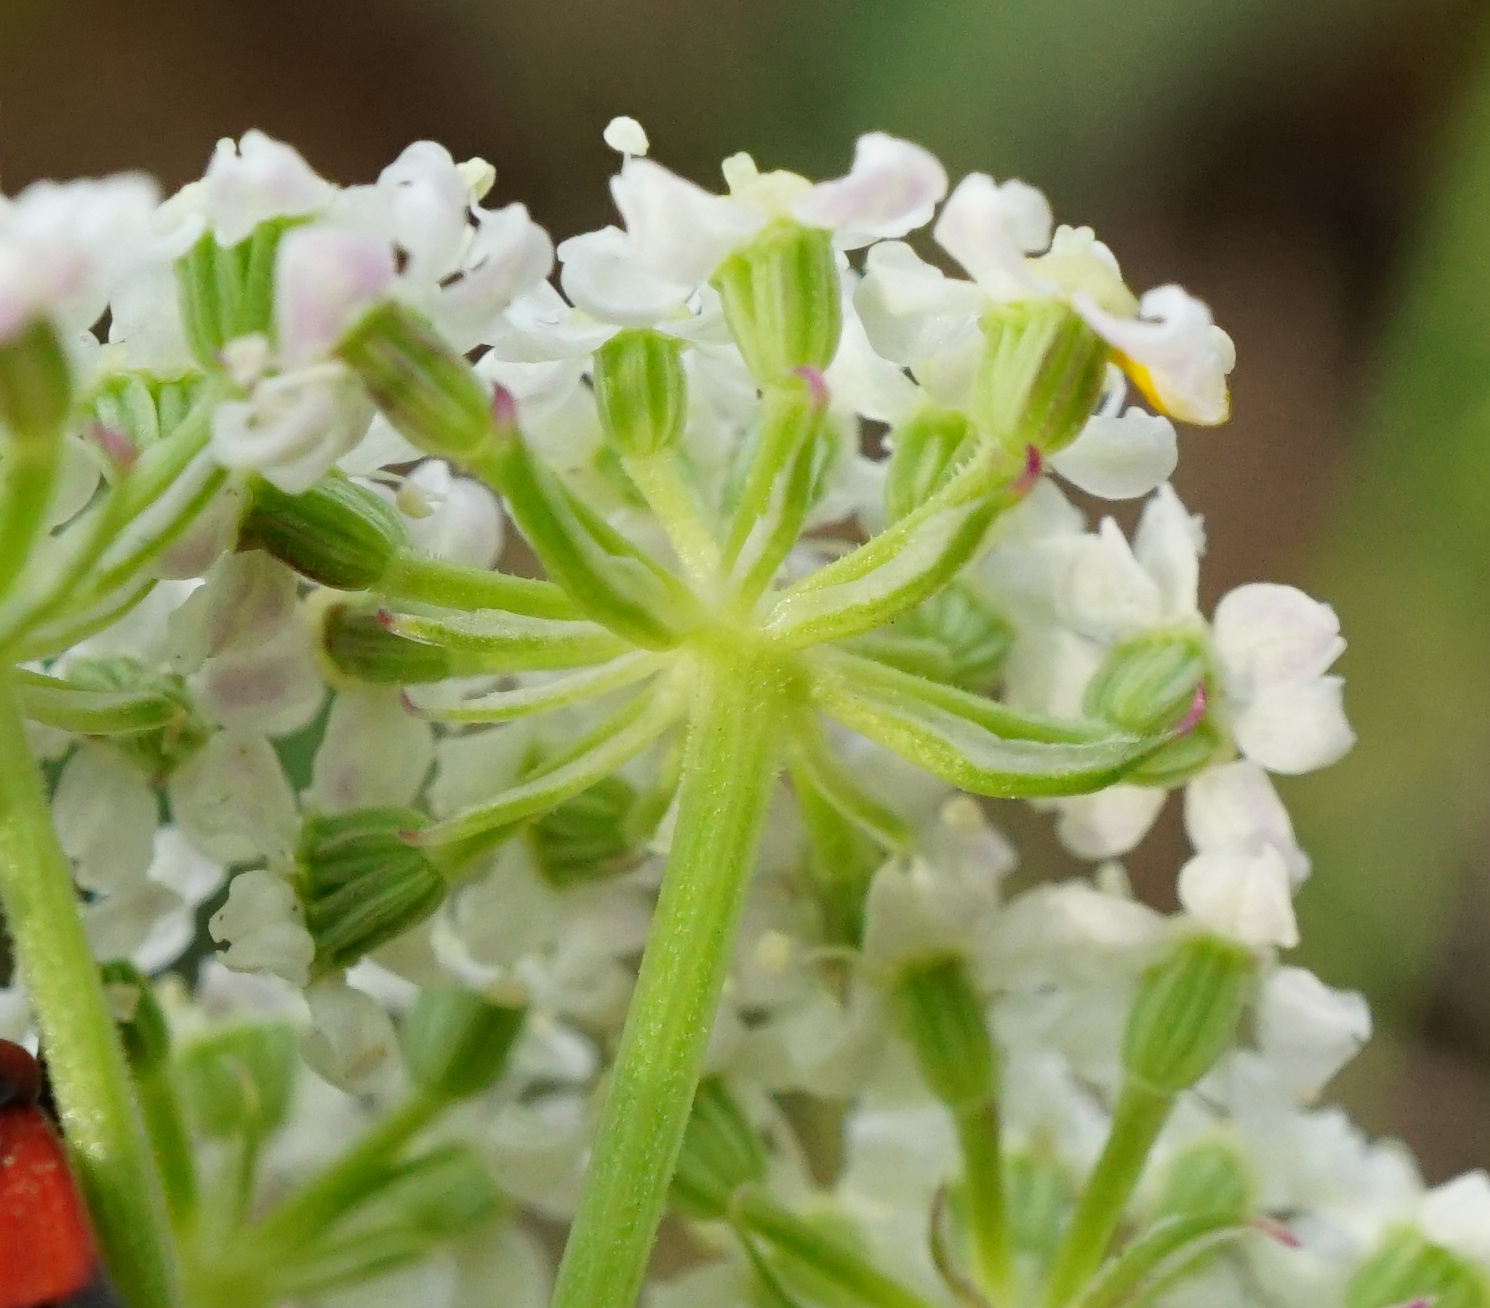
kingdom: Plantae
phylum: Tracheophyta
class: Magnoliopsida
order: Apiales
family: Apiaceae
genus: Seseli
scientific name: Seseli annuum
